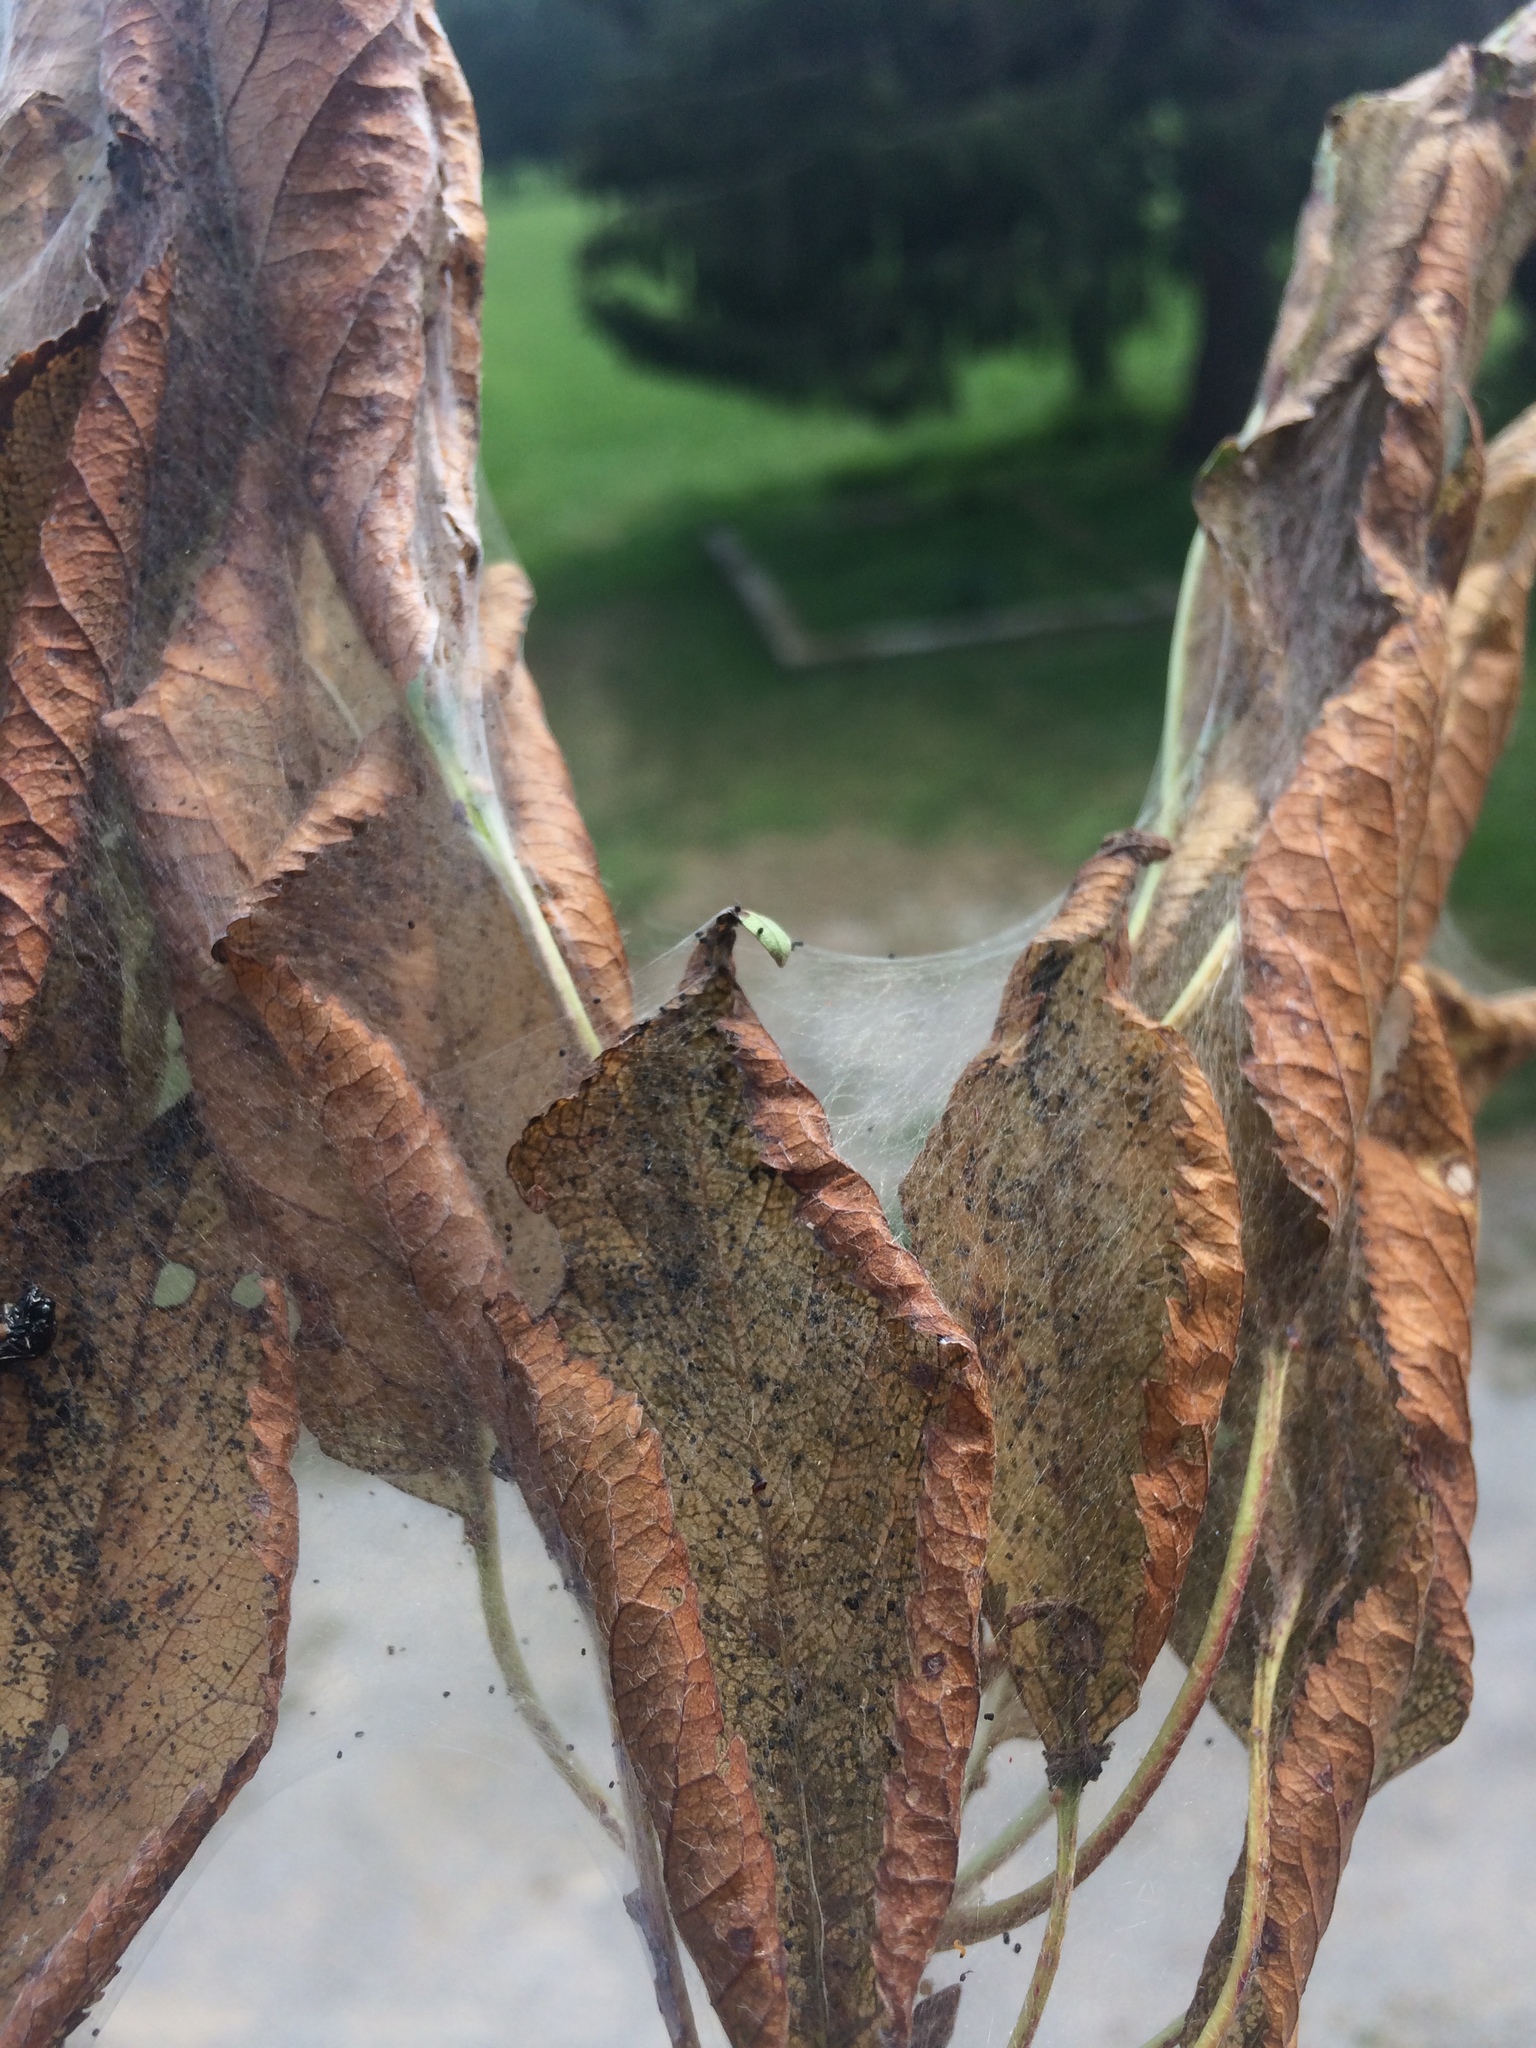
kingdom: Animalia
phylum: Arthropoda
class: Insecta
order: Lepidoptera
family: Erebidae
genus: Hyphantria
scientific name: Hyphantria cunea
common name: American white moth
